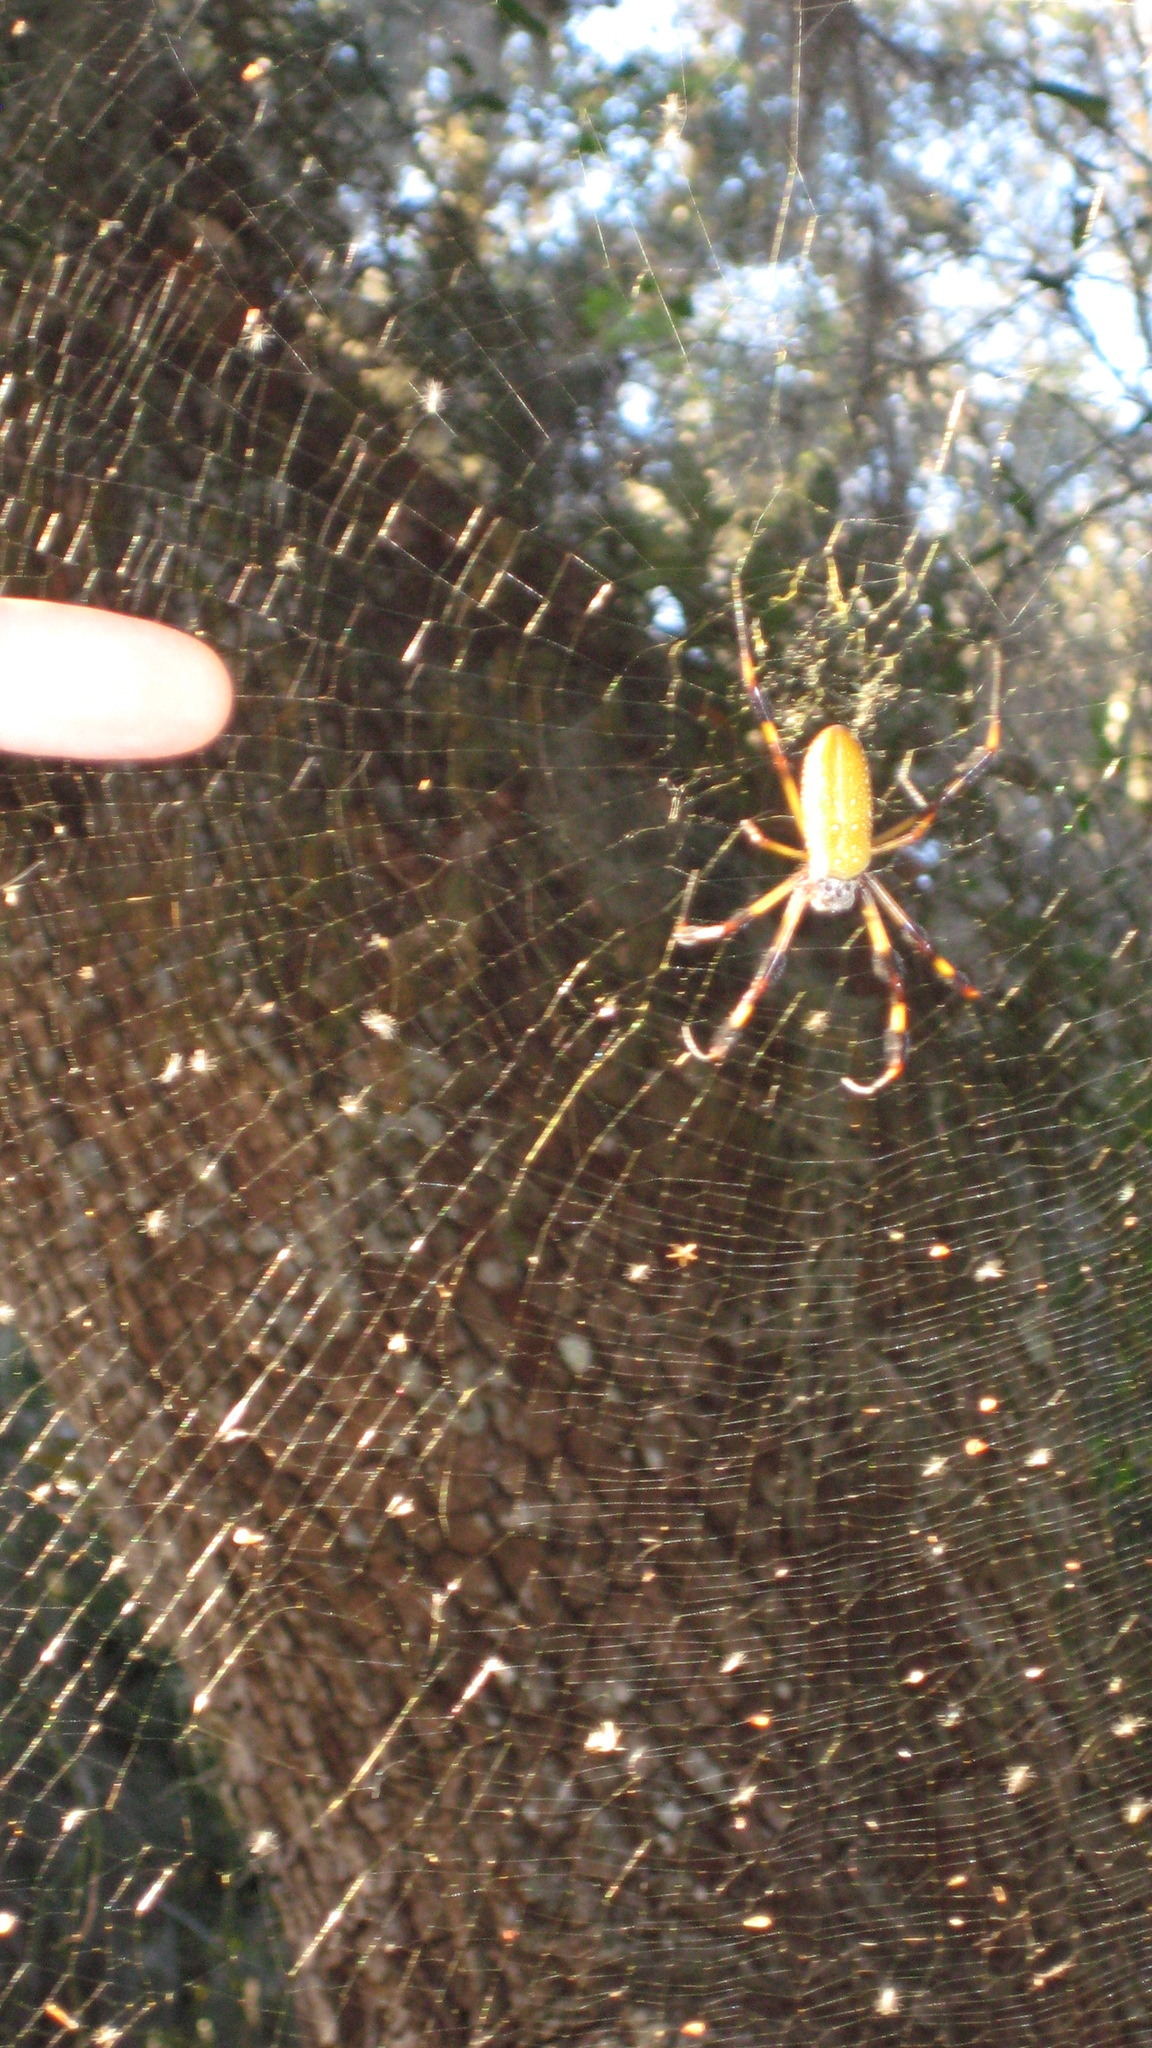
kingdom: Animalia
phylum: Arthropoda
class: Arachnida
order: Araneae
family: Araneidae
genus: Trichonephila
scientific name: Trichonephila clavipes
